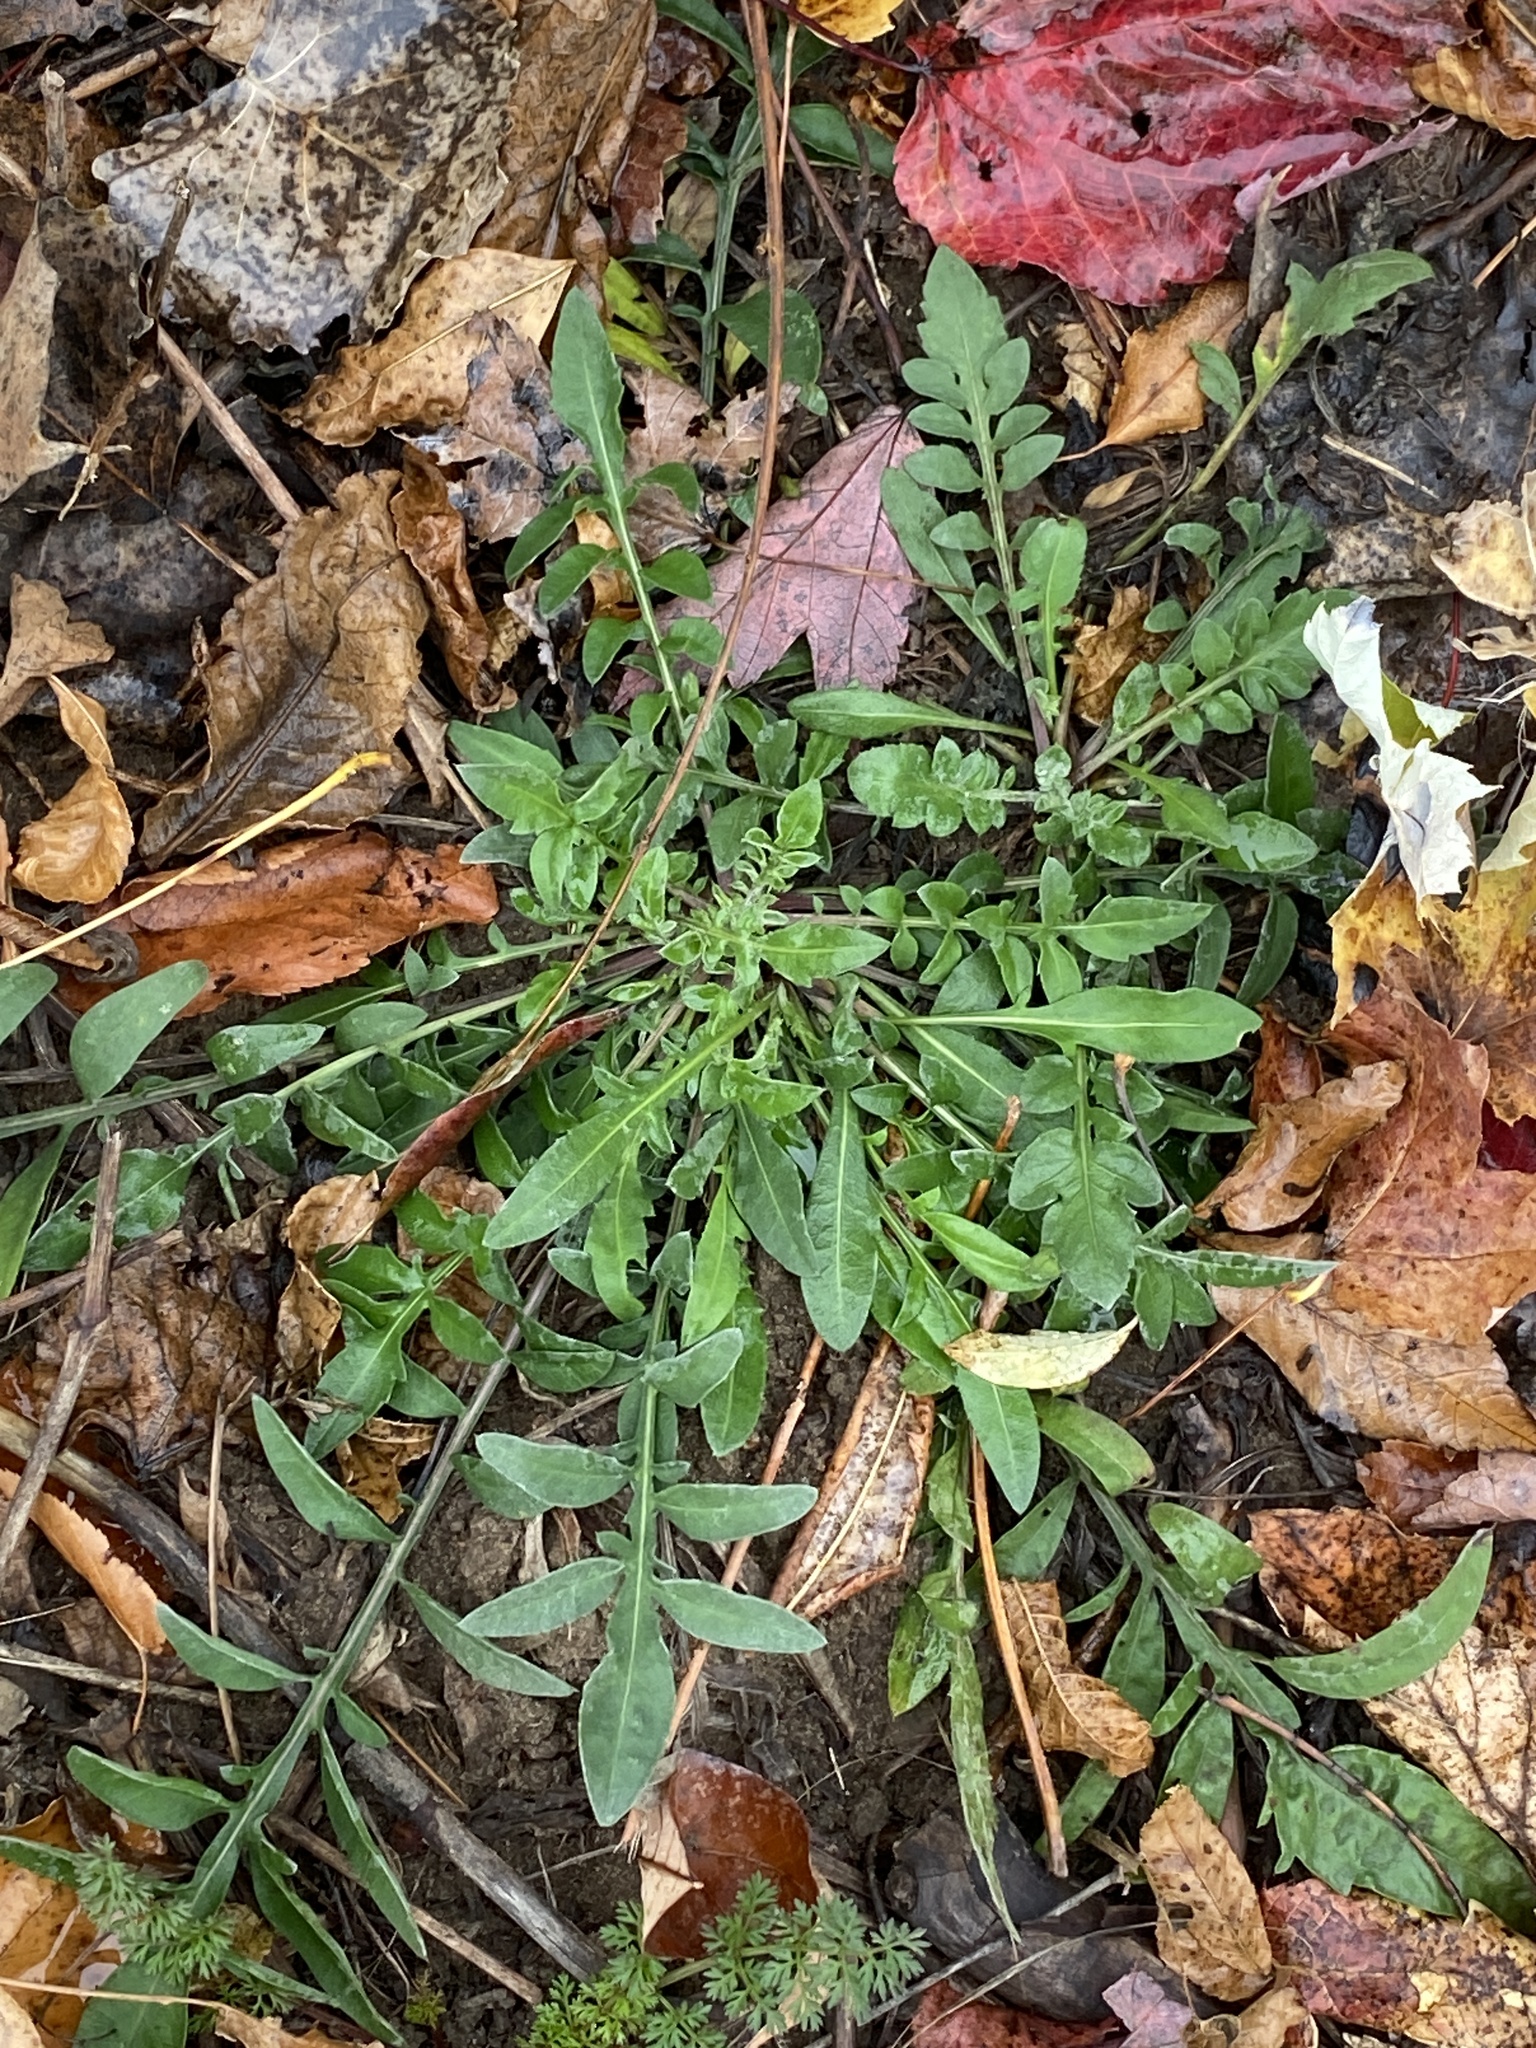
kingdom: Plantae
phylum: Tracheophyta
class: Magnoliopsida
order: Asterales
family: Asteraceae
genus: Centaurea
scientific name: Centaurea stoebe
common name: Spotted knapweed
